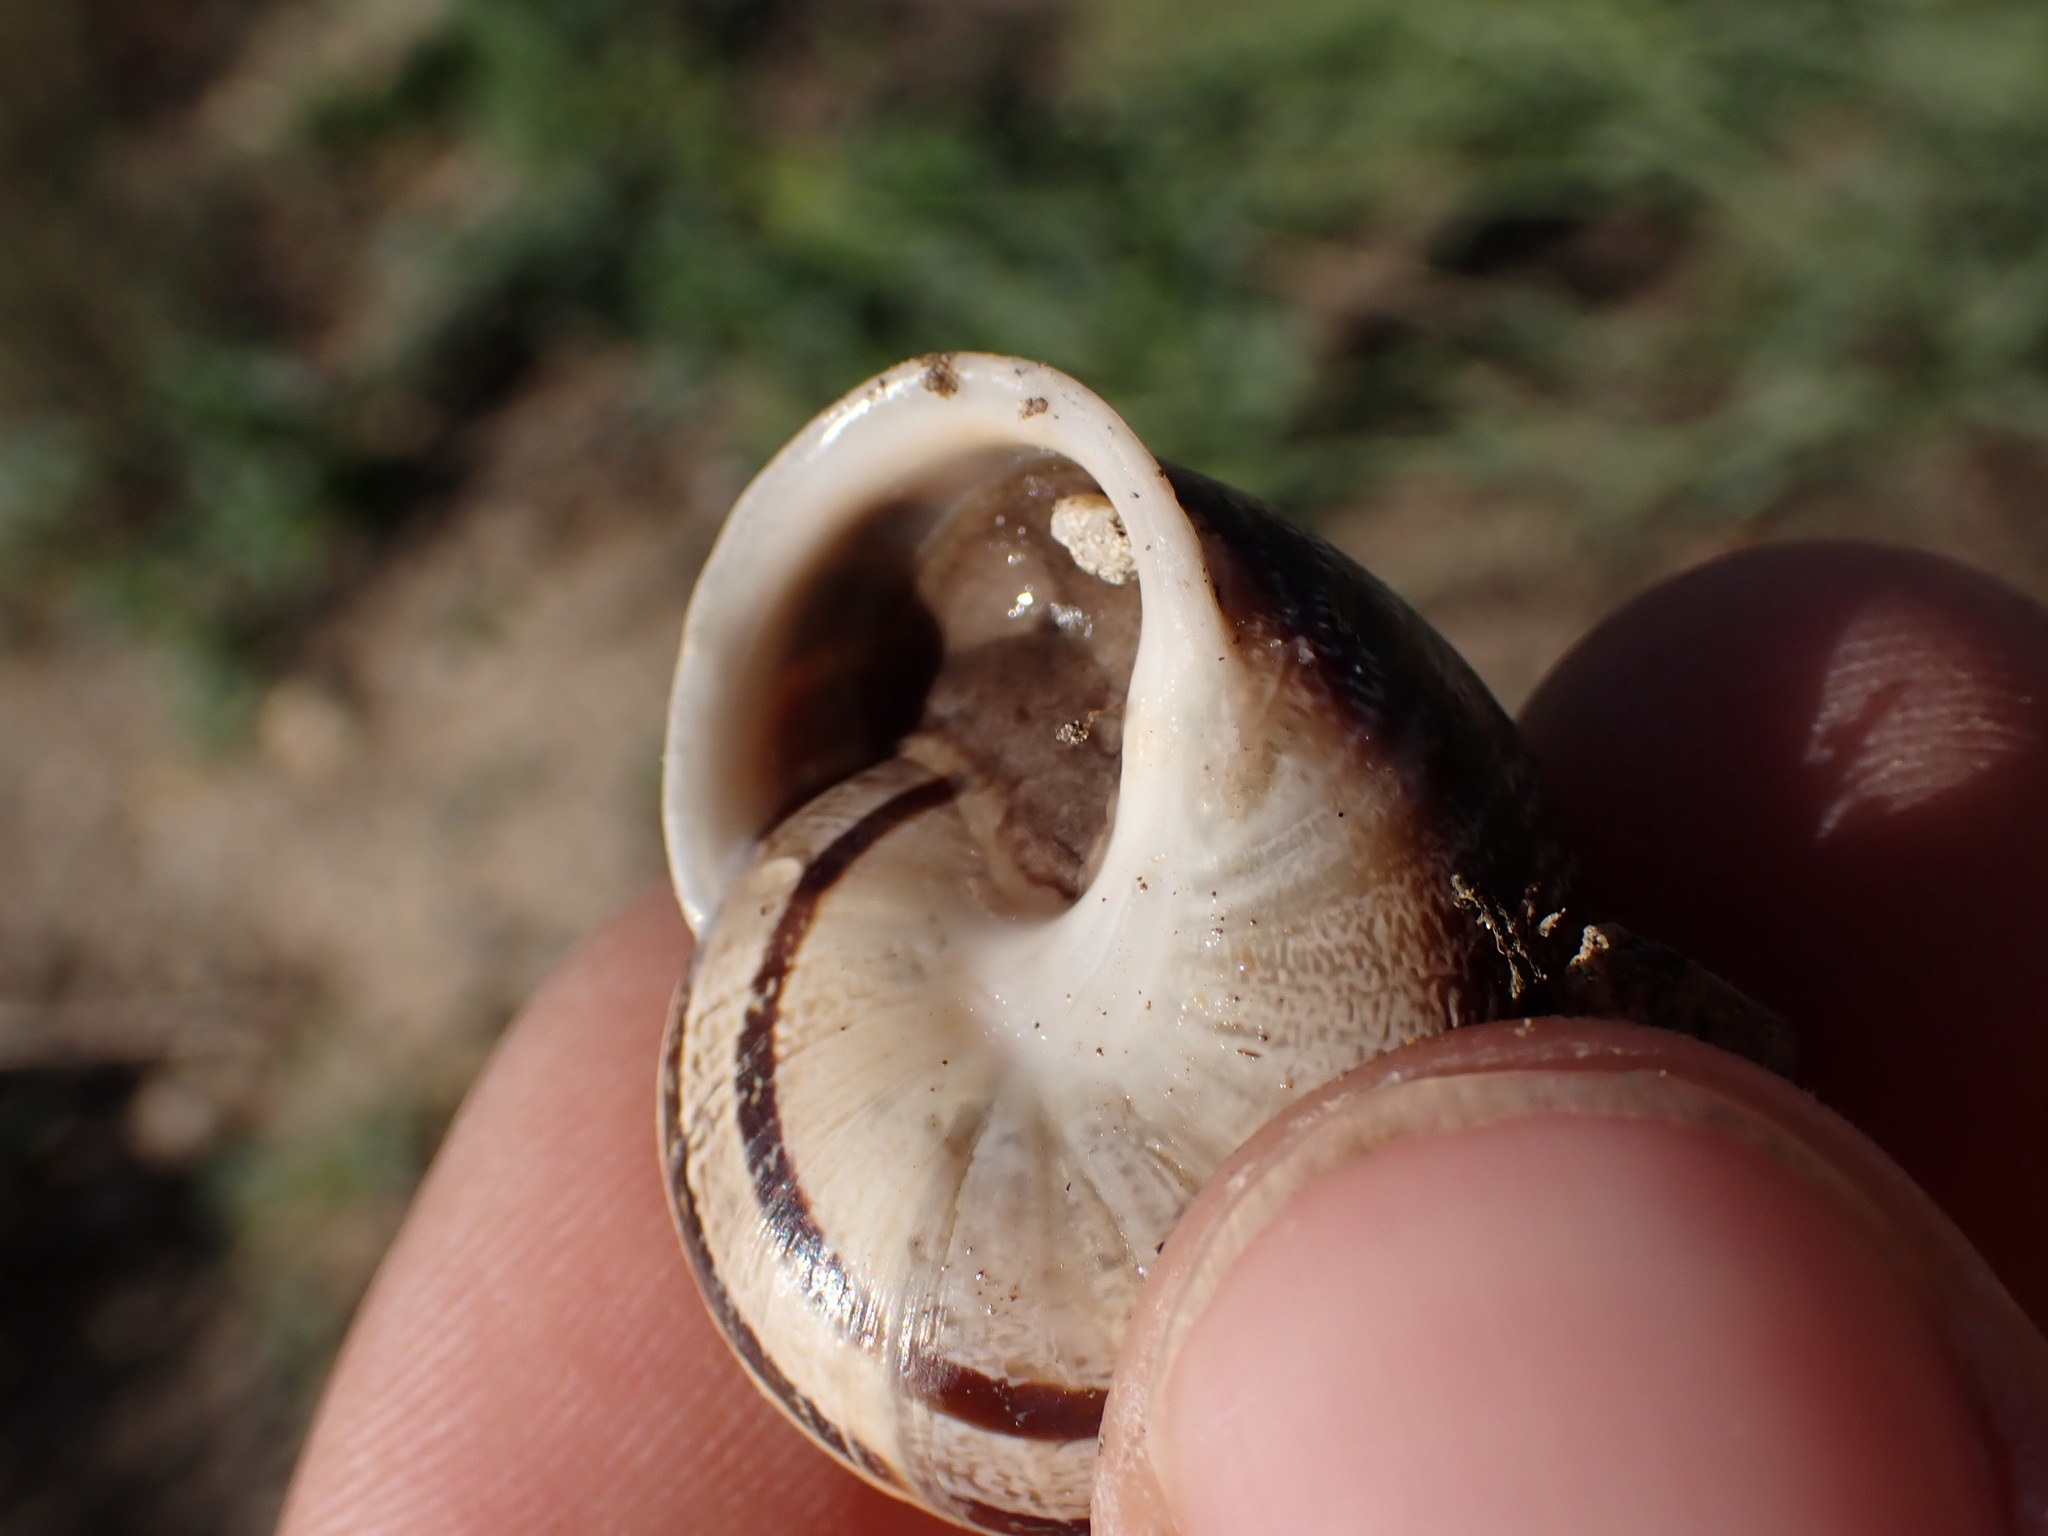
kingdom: Animalia
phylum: Mollusca
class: Gastropoda
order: Stylommatophora
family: Helicidae
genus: Eobania
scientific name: Eobania vermiculata
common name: Chocolateband snail
